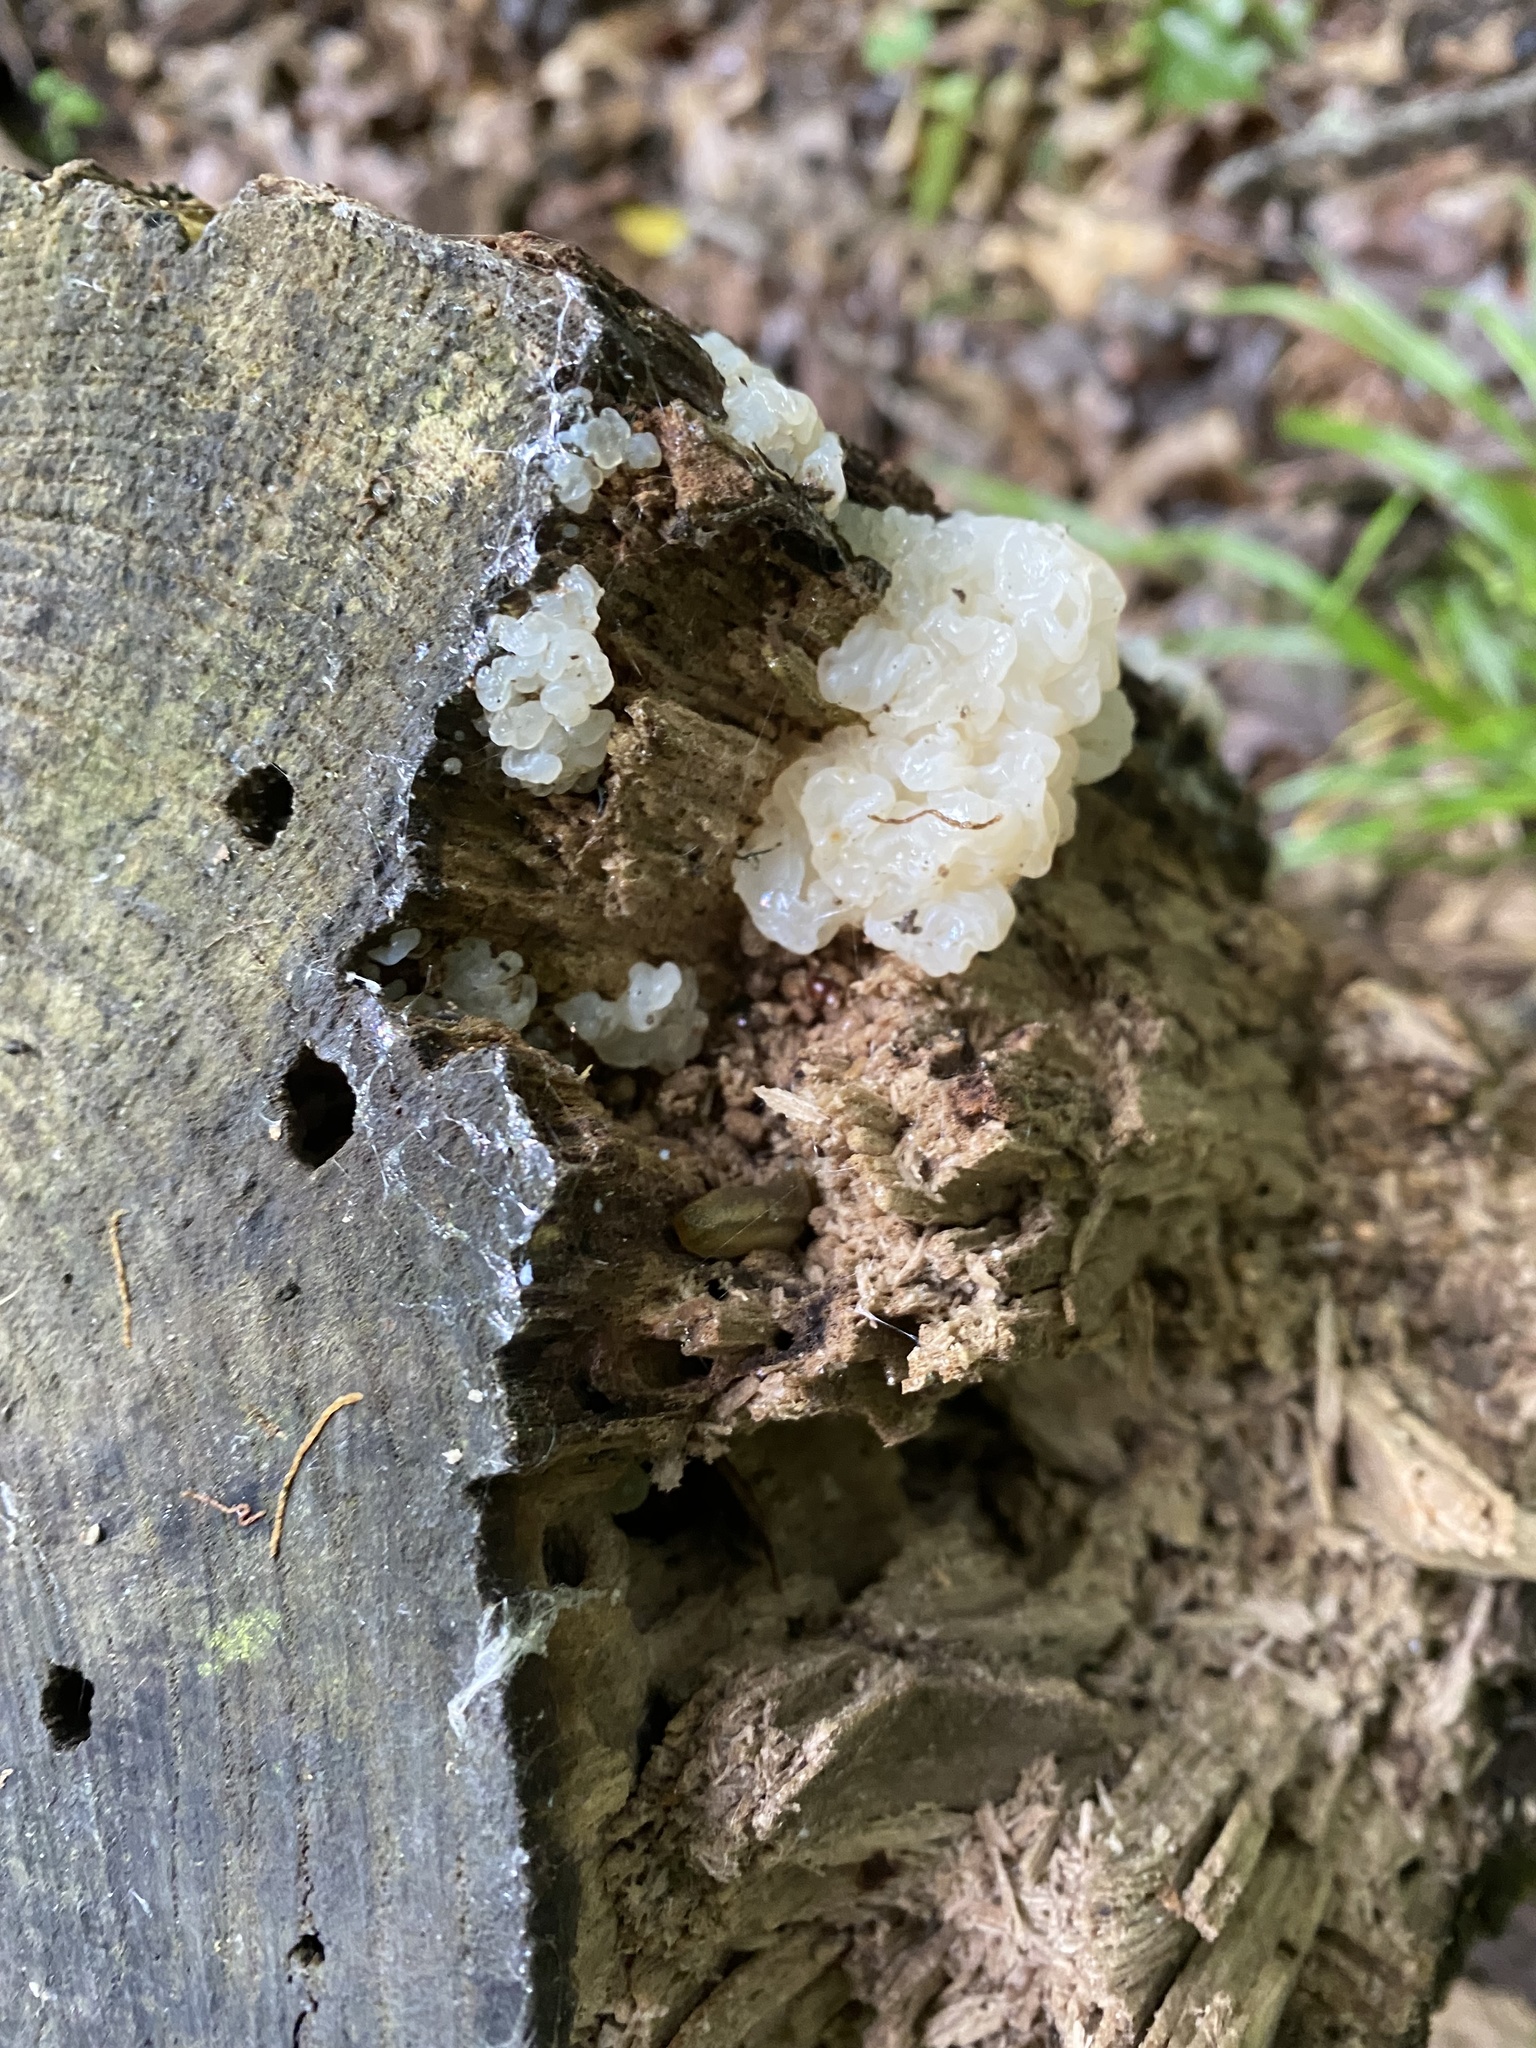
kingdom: Fungi
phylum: Basidiomycota
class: Agaricomycetes
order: Auriculariales
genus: Ductifera
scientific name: Ductifera pululahuana
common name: White jelly fungus
